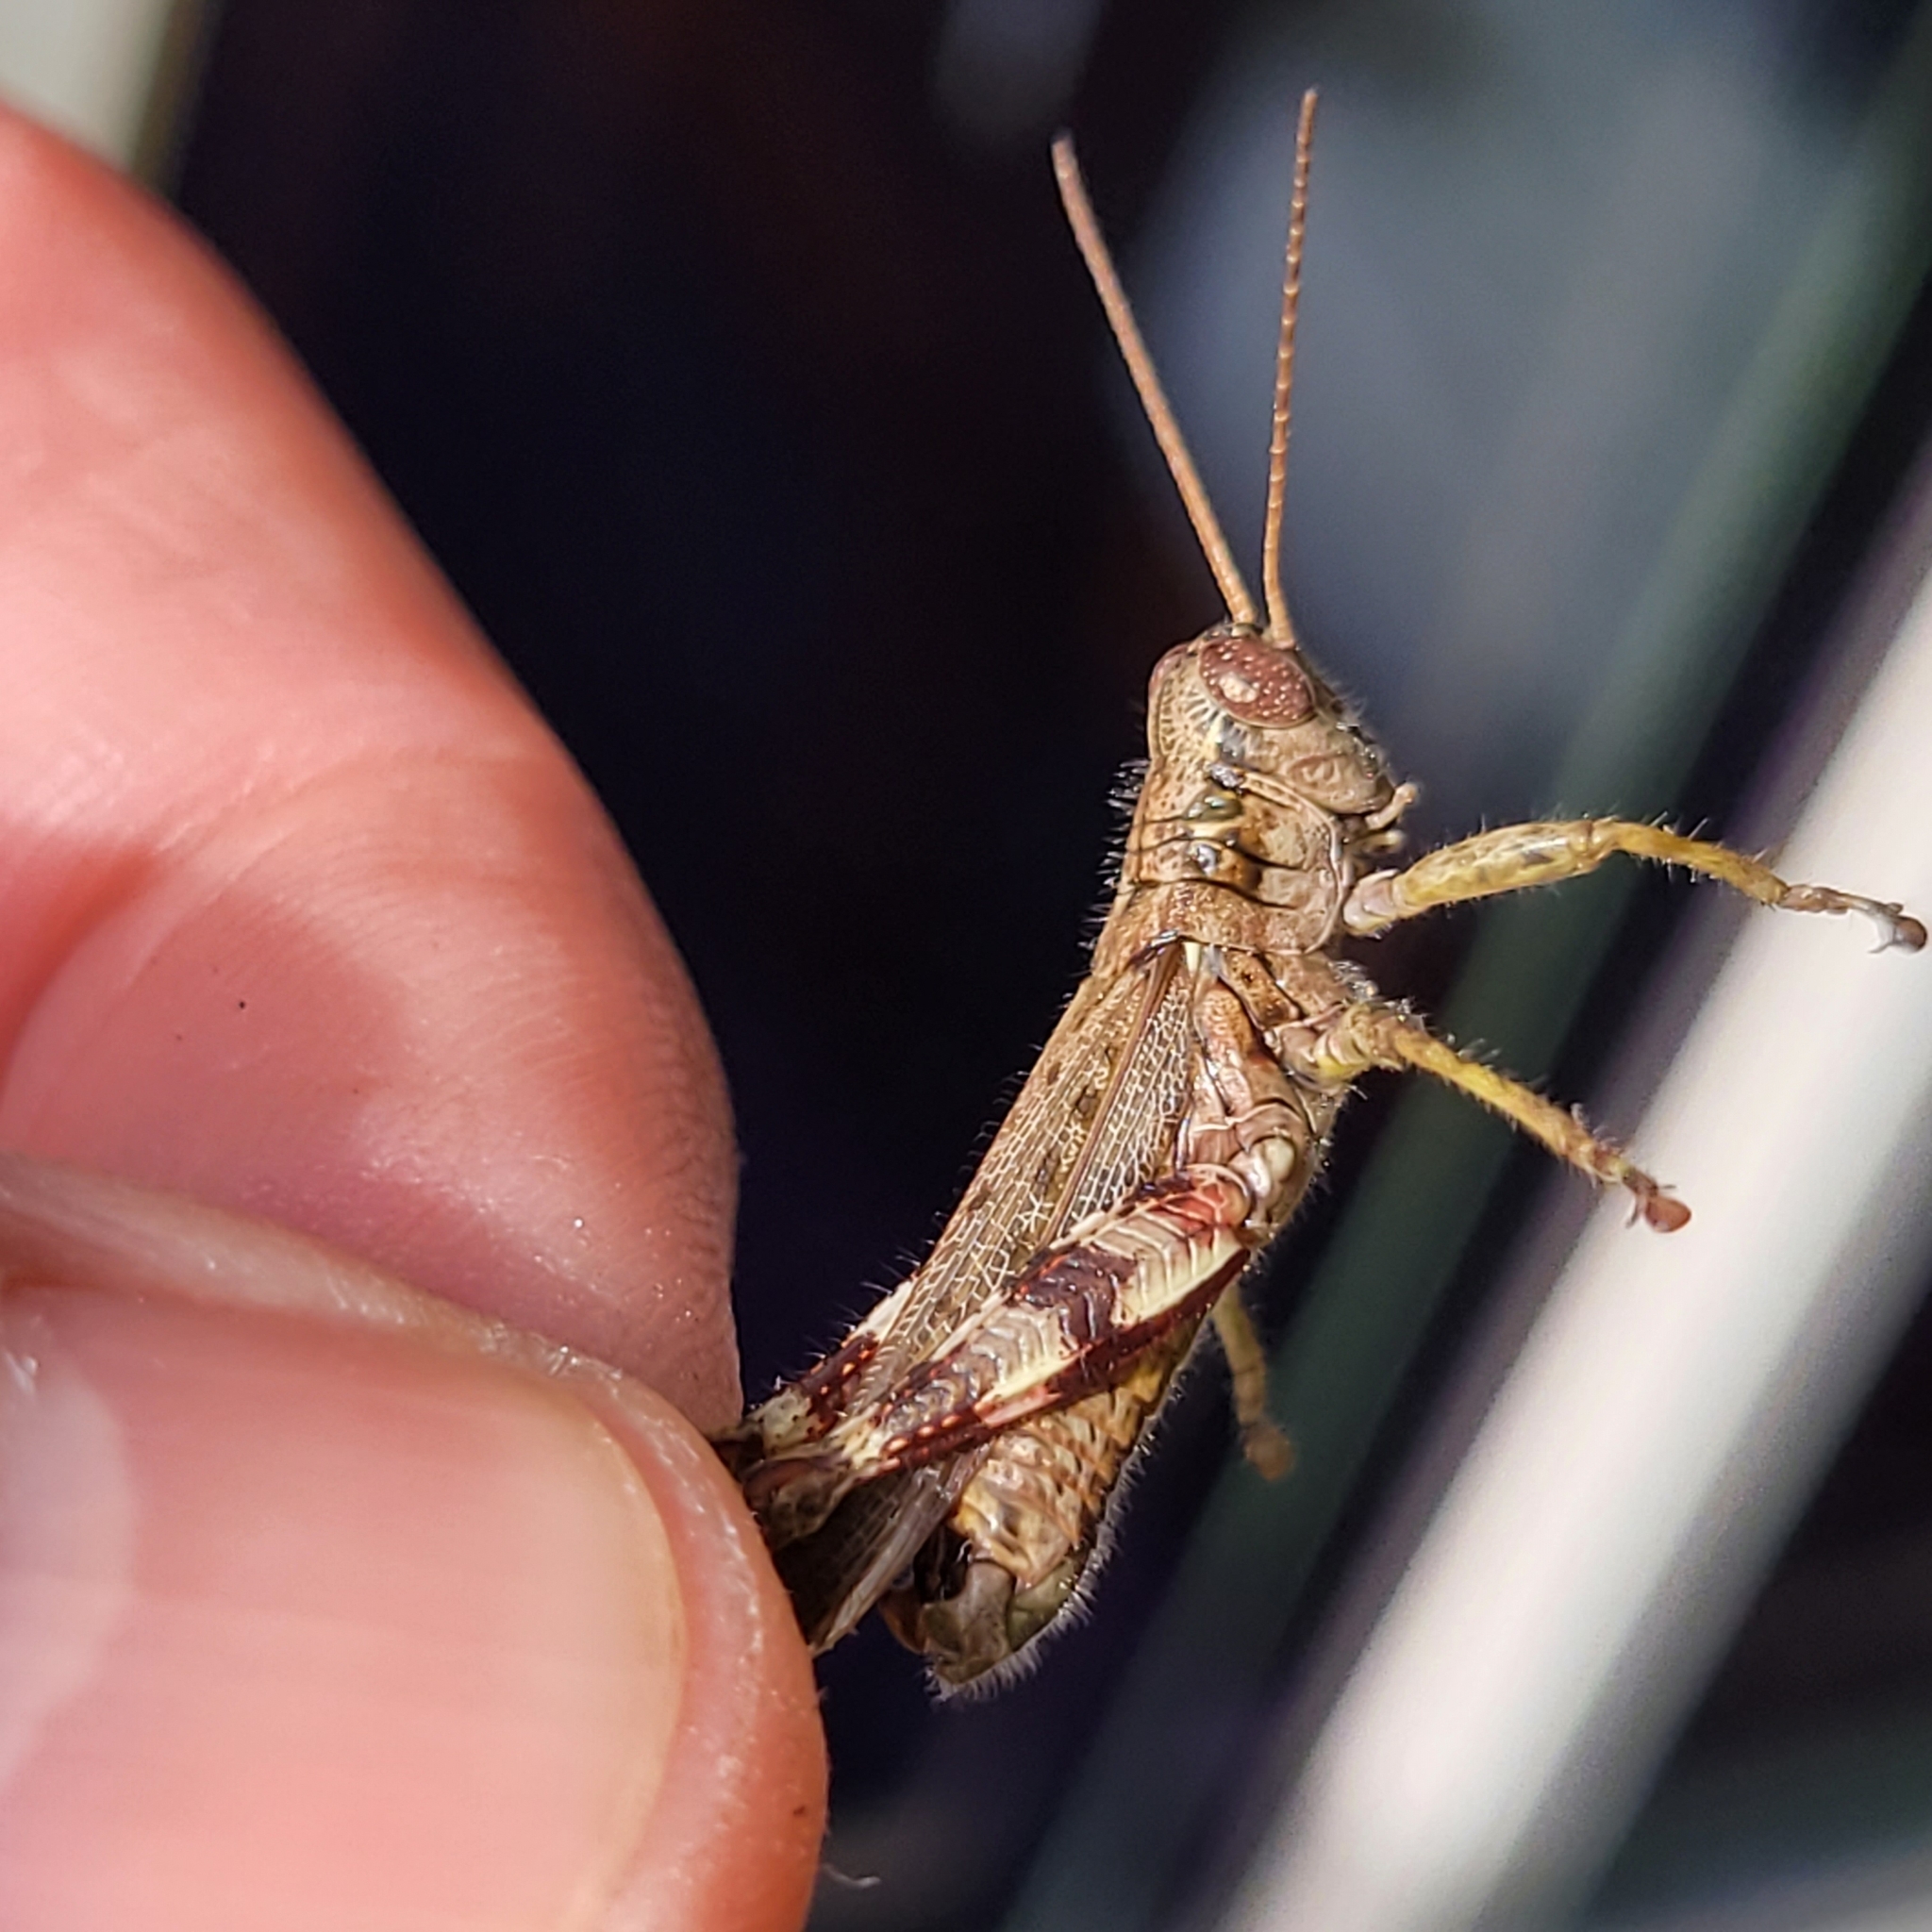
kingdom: Animalia
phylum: Arthropoda
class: Insecta
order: Orthoptera
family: Acrididae
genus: Melanoplus
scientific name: Melanoplus punctulatus
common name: Pine-tree spur-throat grasshopper
